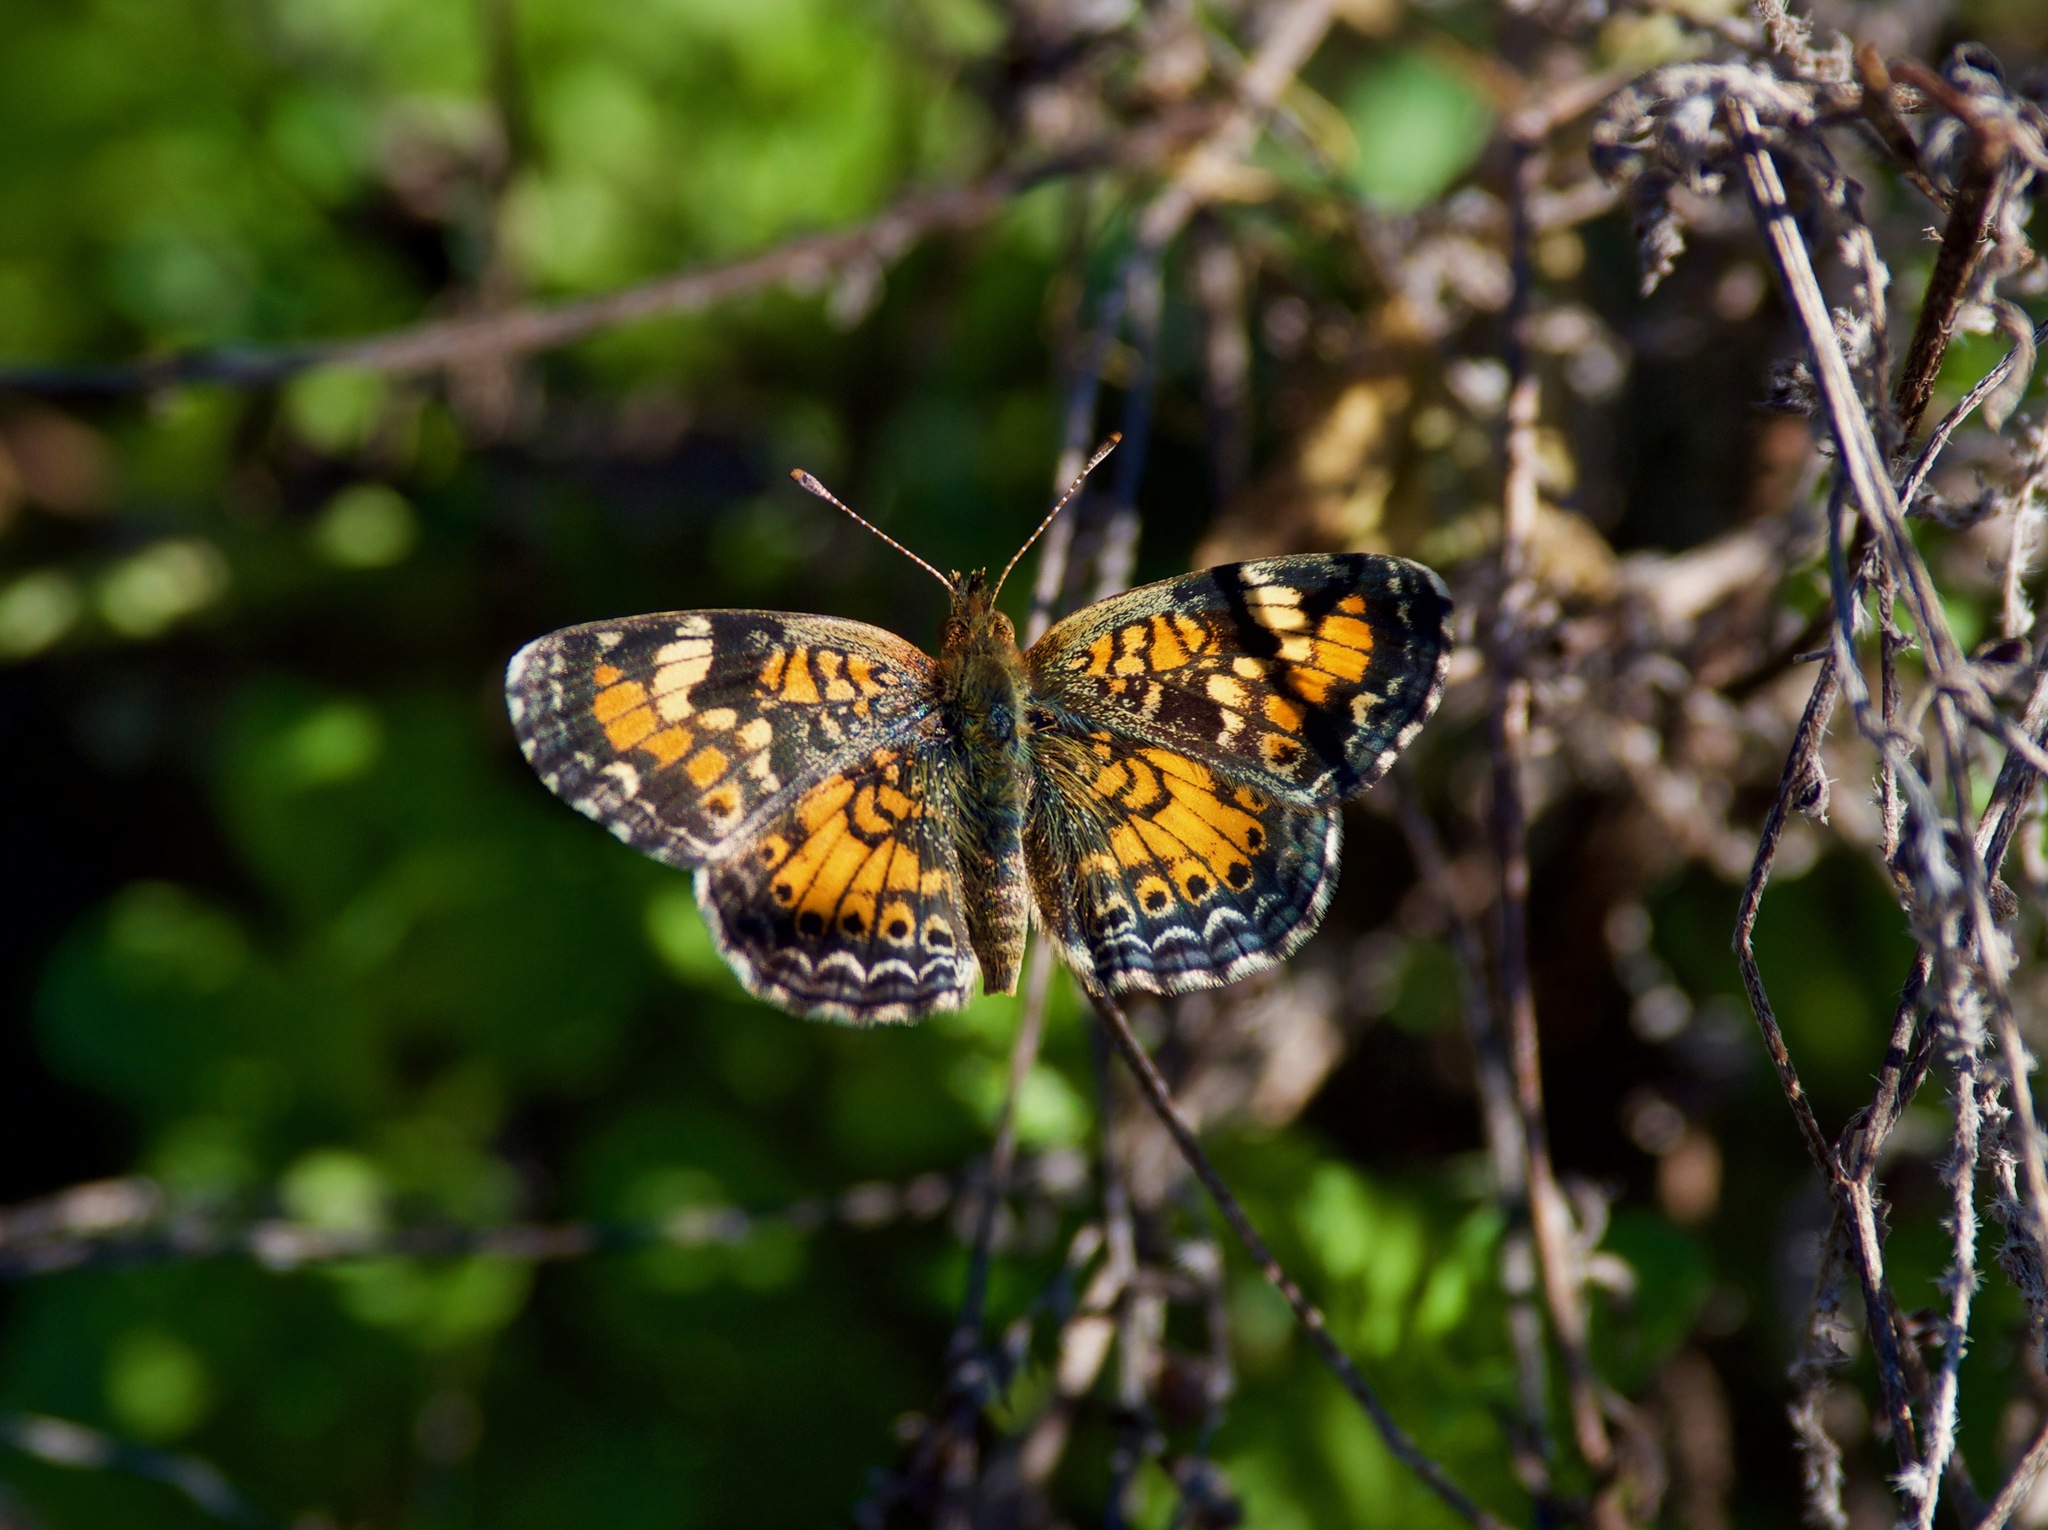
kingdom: Animalia
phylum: Arthropoda
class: Insecta
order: Lepidoptera
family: Nymphalidae
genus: Phyciodes
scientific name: Phyciodes phaon
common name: Phaon crescent
